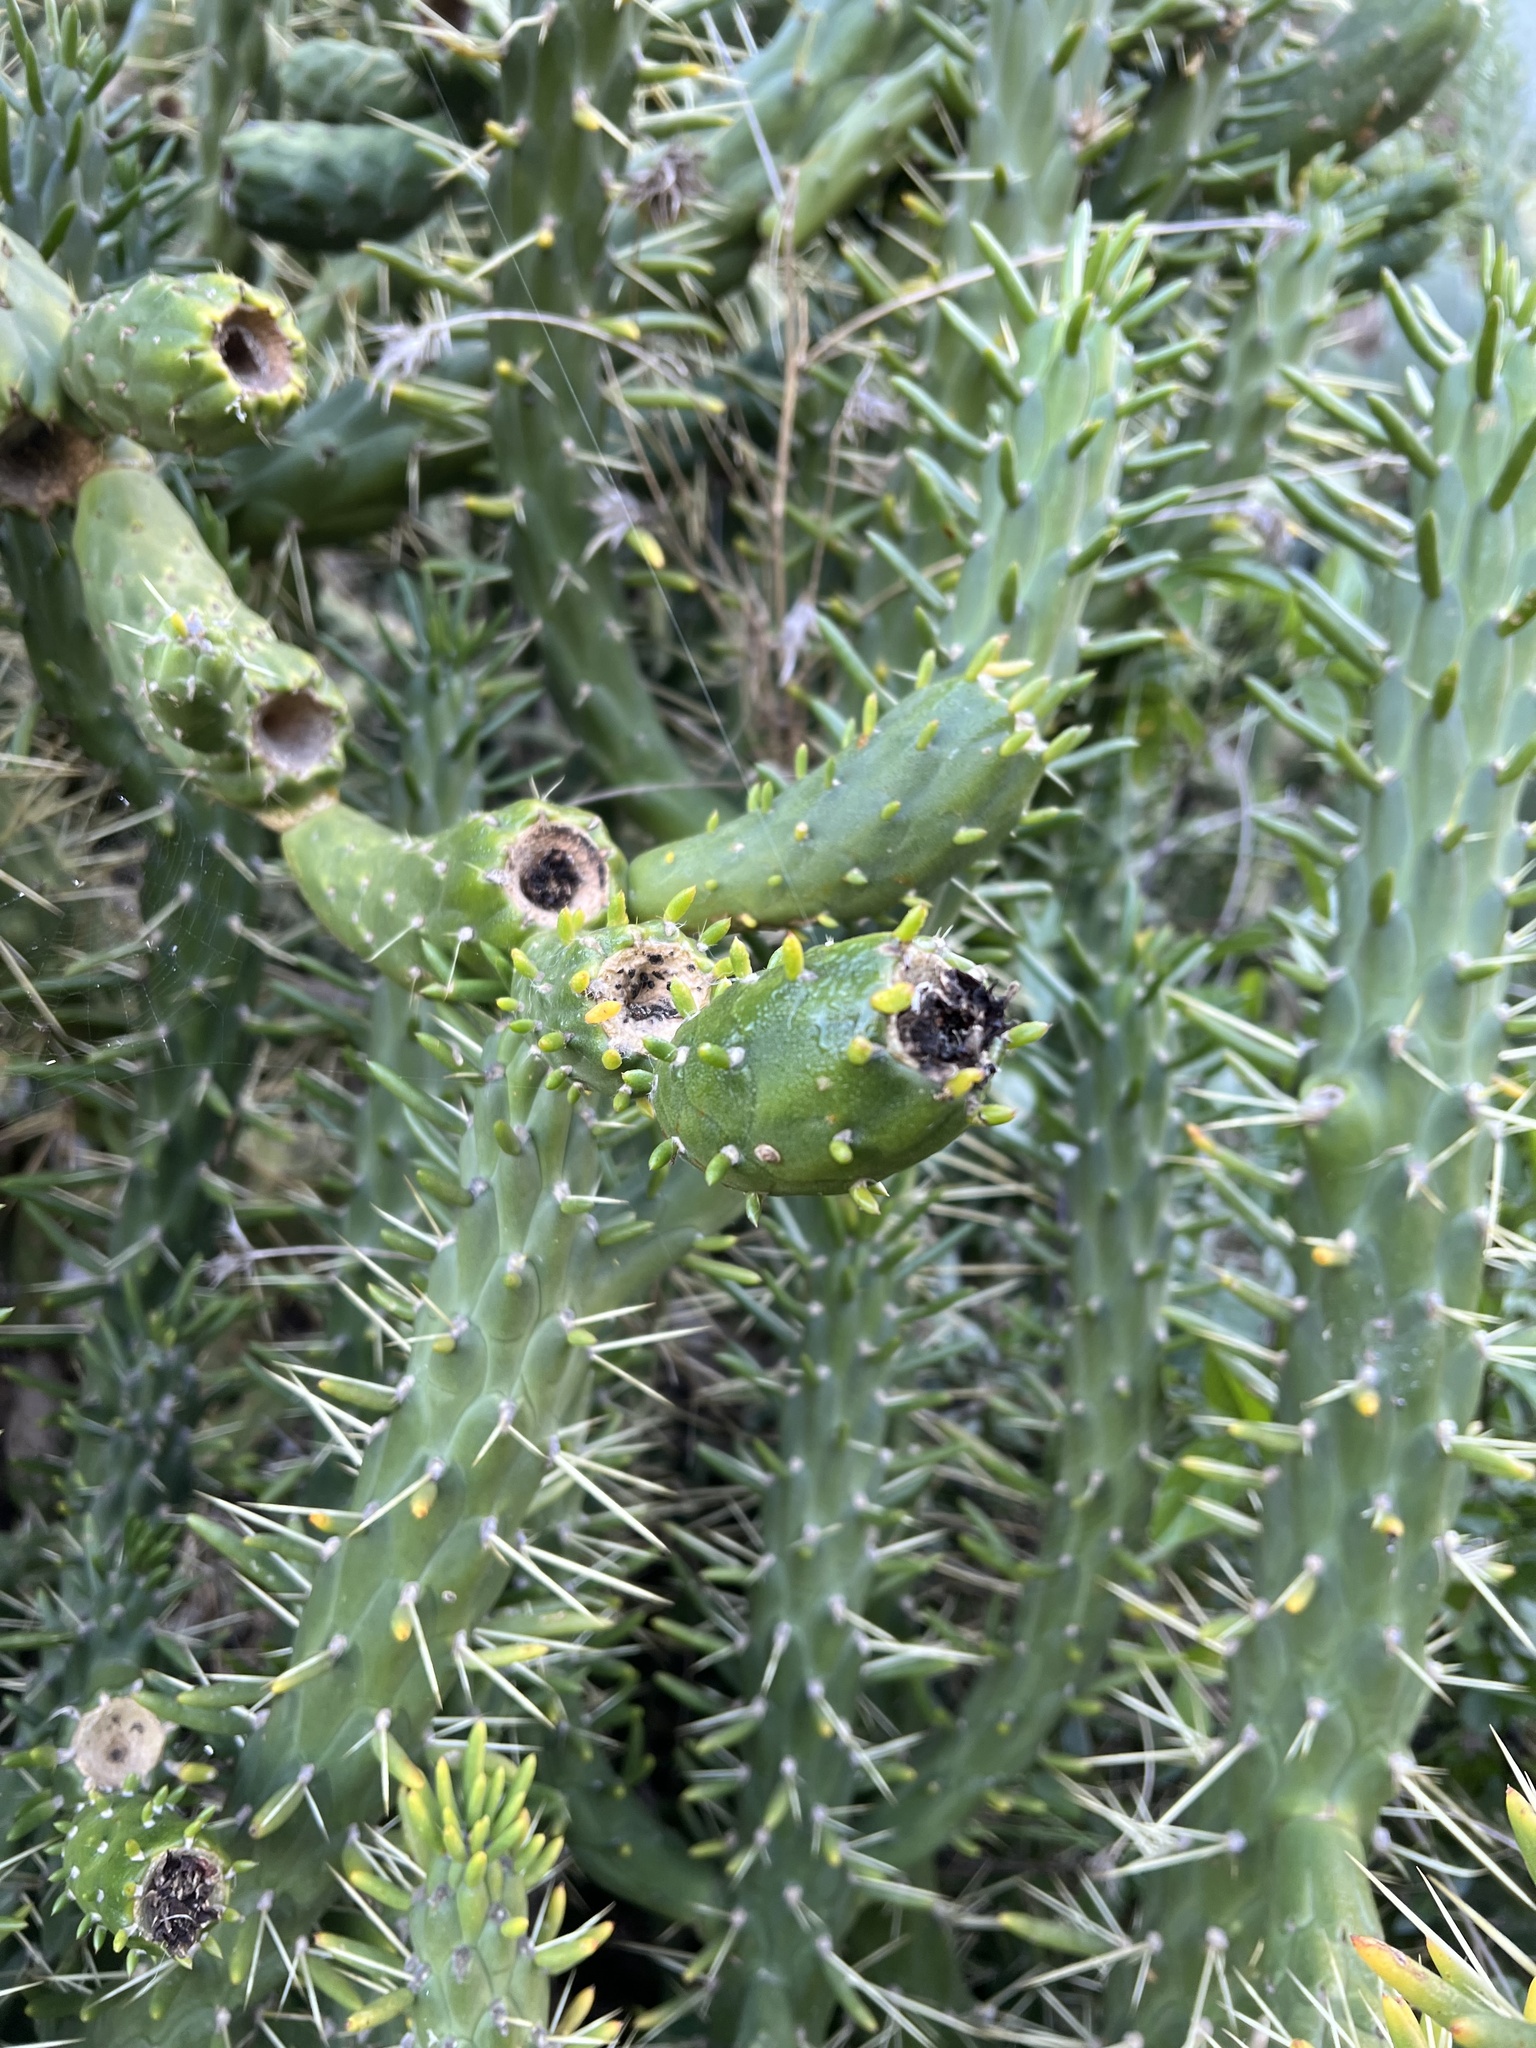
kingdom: Plantae
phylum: Tracheophyta
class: Magnoliopsida
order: Caryophyllales
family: Cactaceae
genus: Austrocylindropuntia
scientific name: Austrocylindropuntia subulata
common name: Eve's needle cactus
